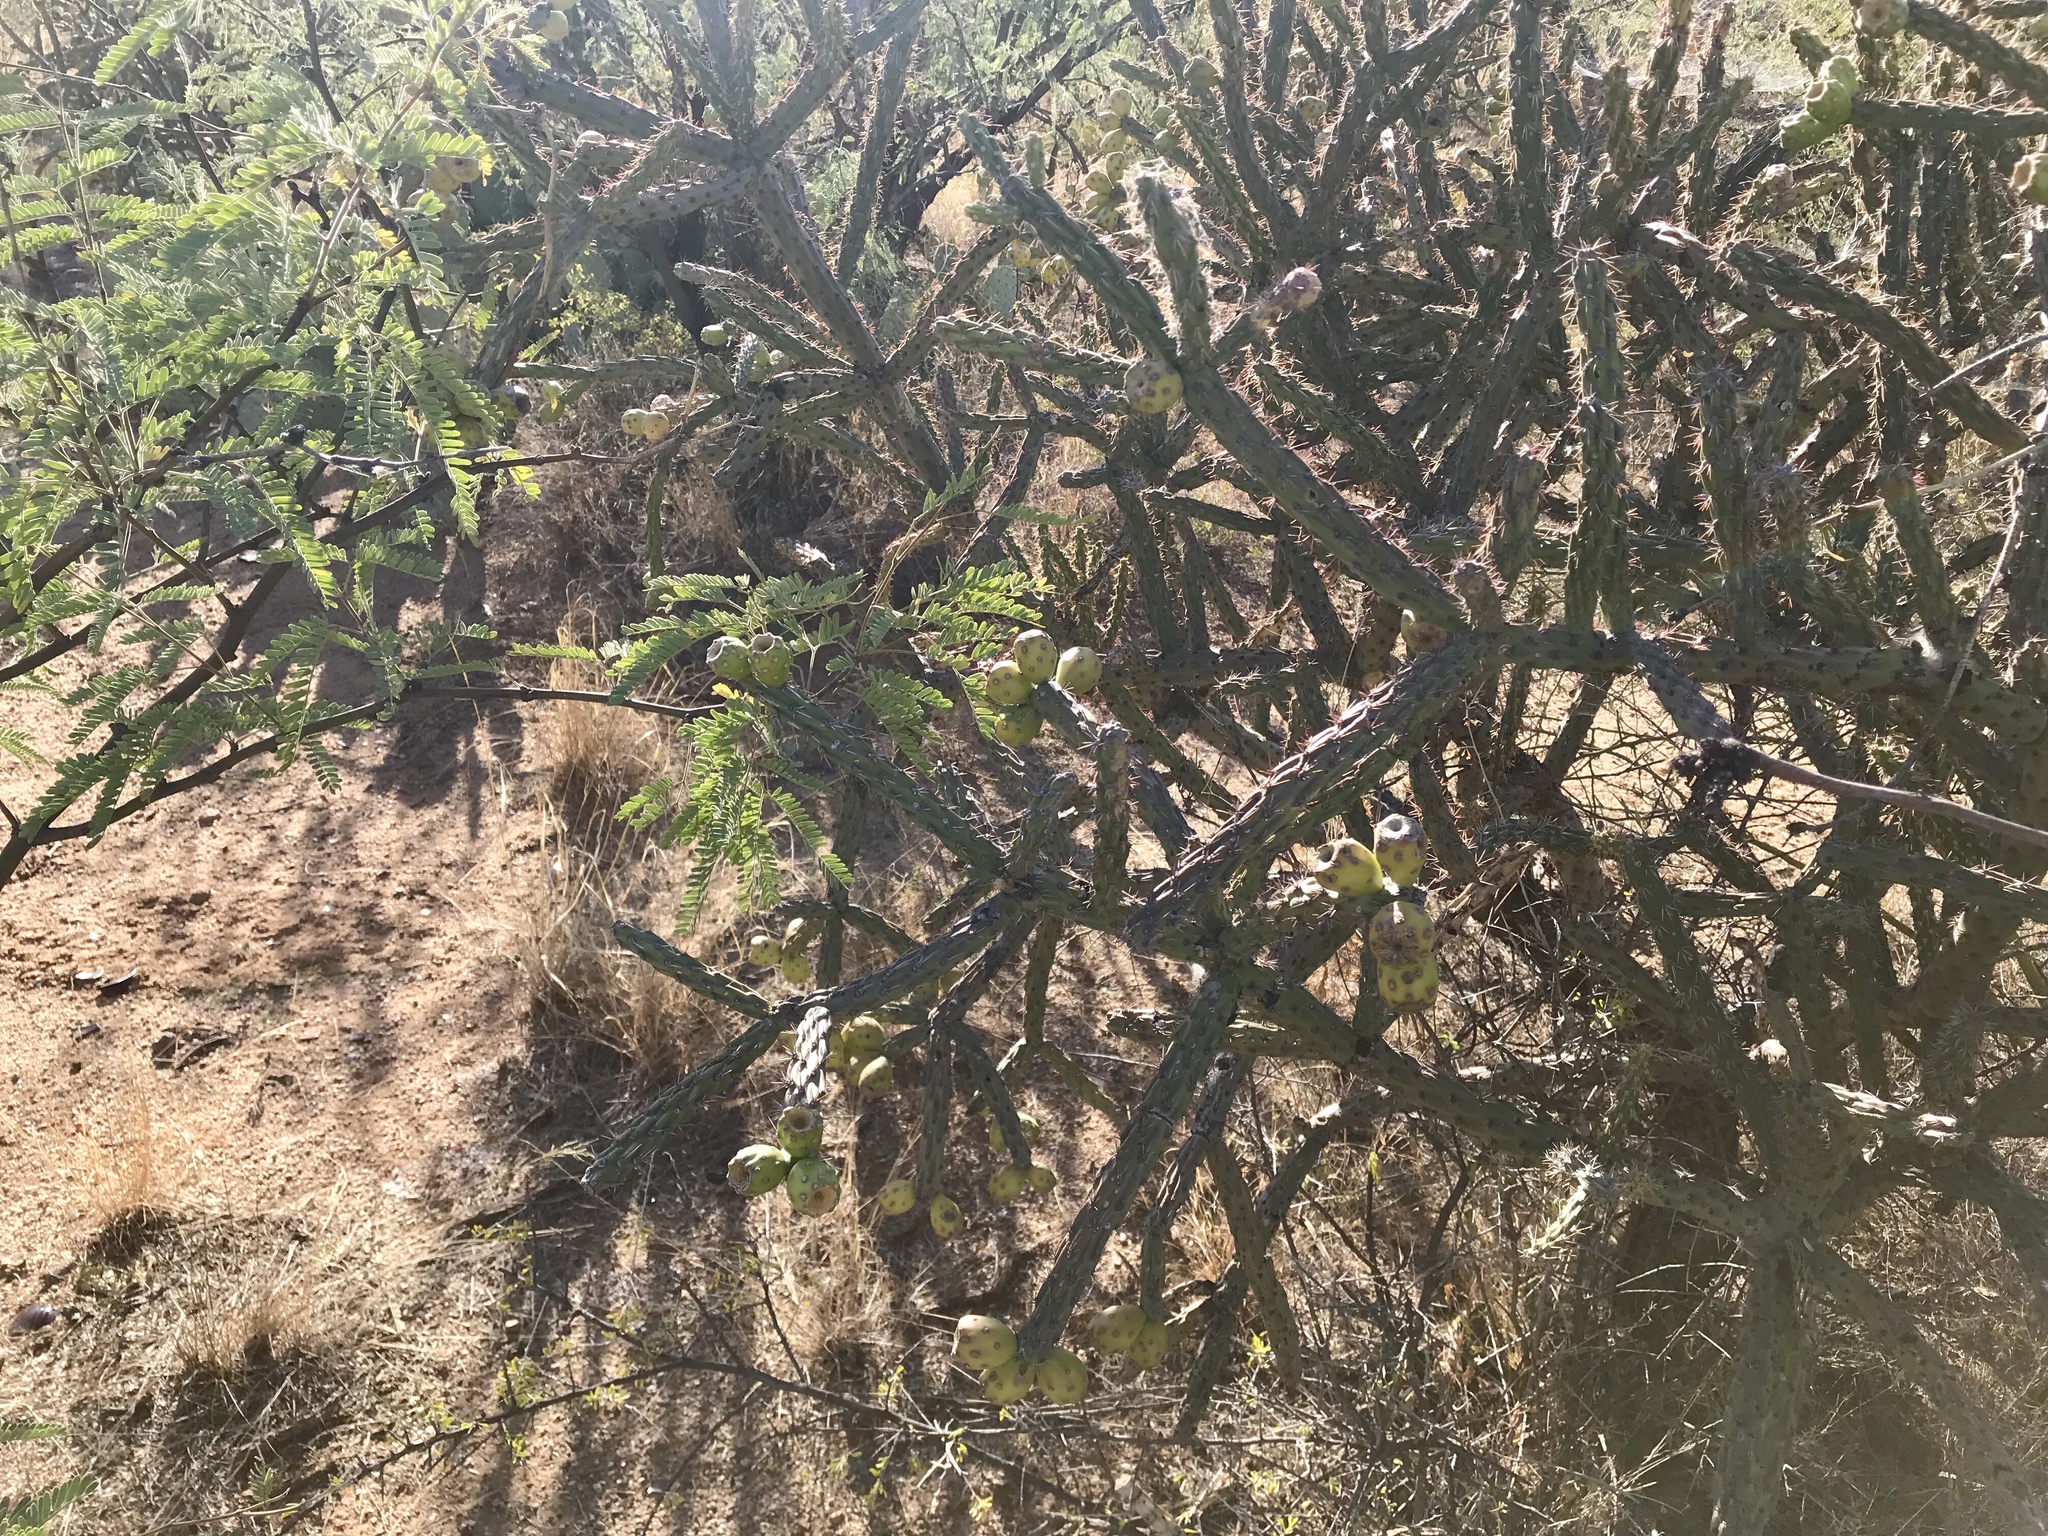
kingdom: Plantae
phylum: Tracheophyta
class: Magnoliopsida
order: Caryophyllales
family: Cactaceae
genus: Cylindropuntia
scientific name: Cylindropuntia thurberi
